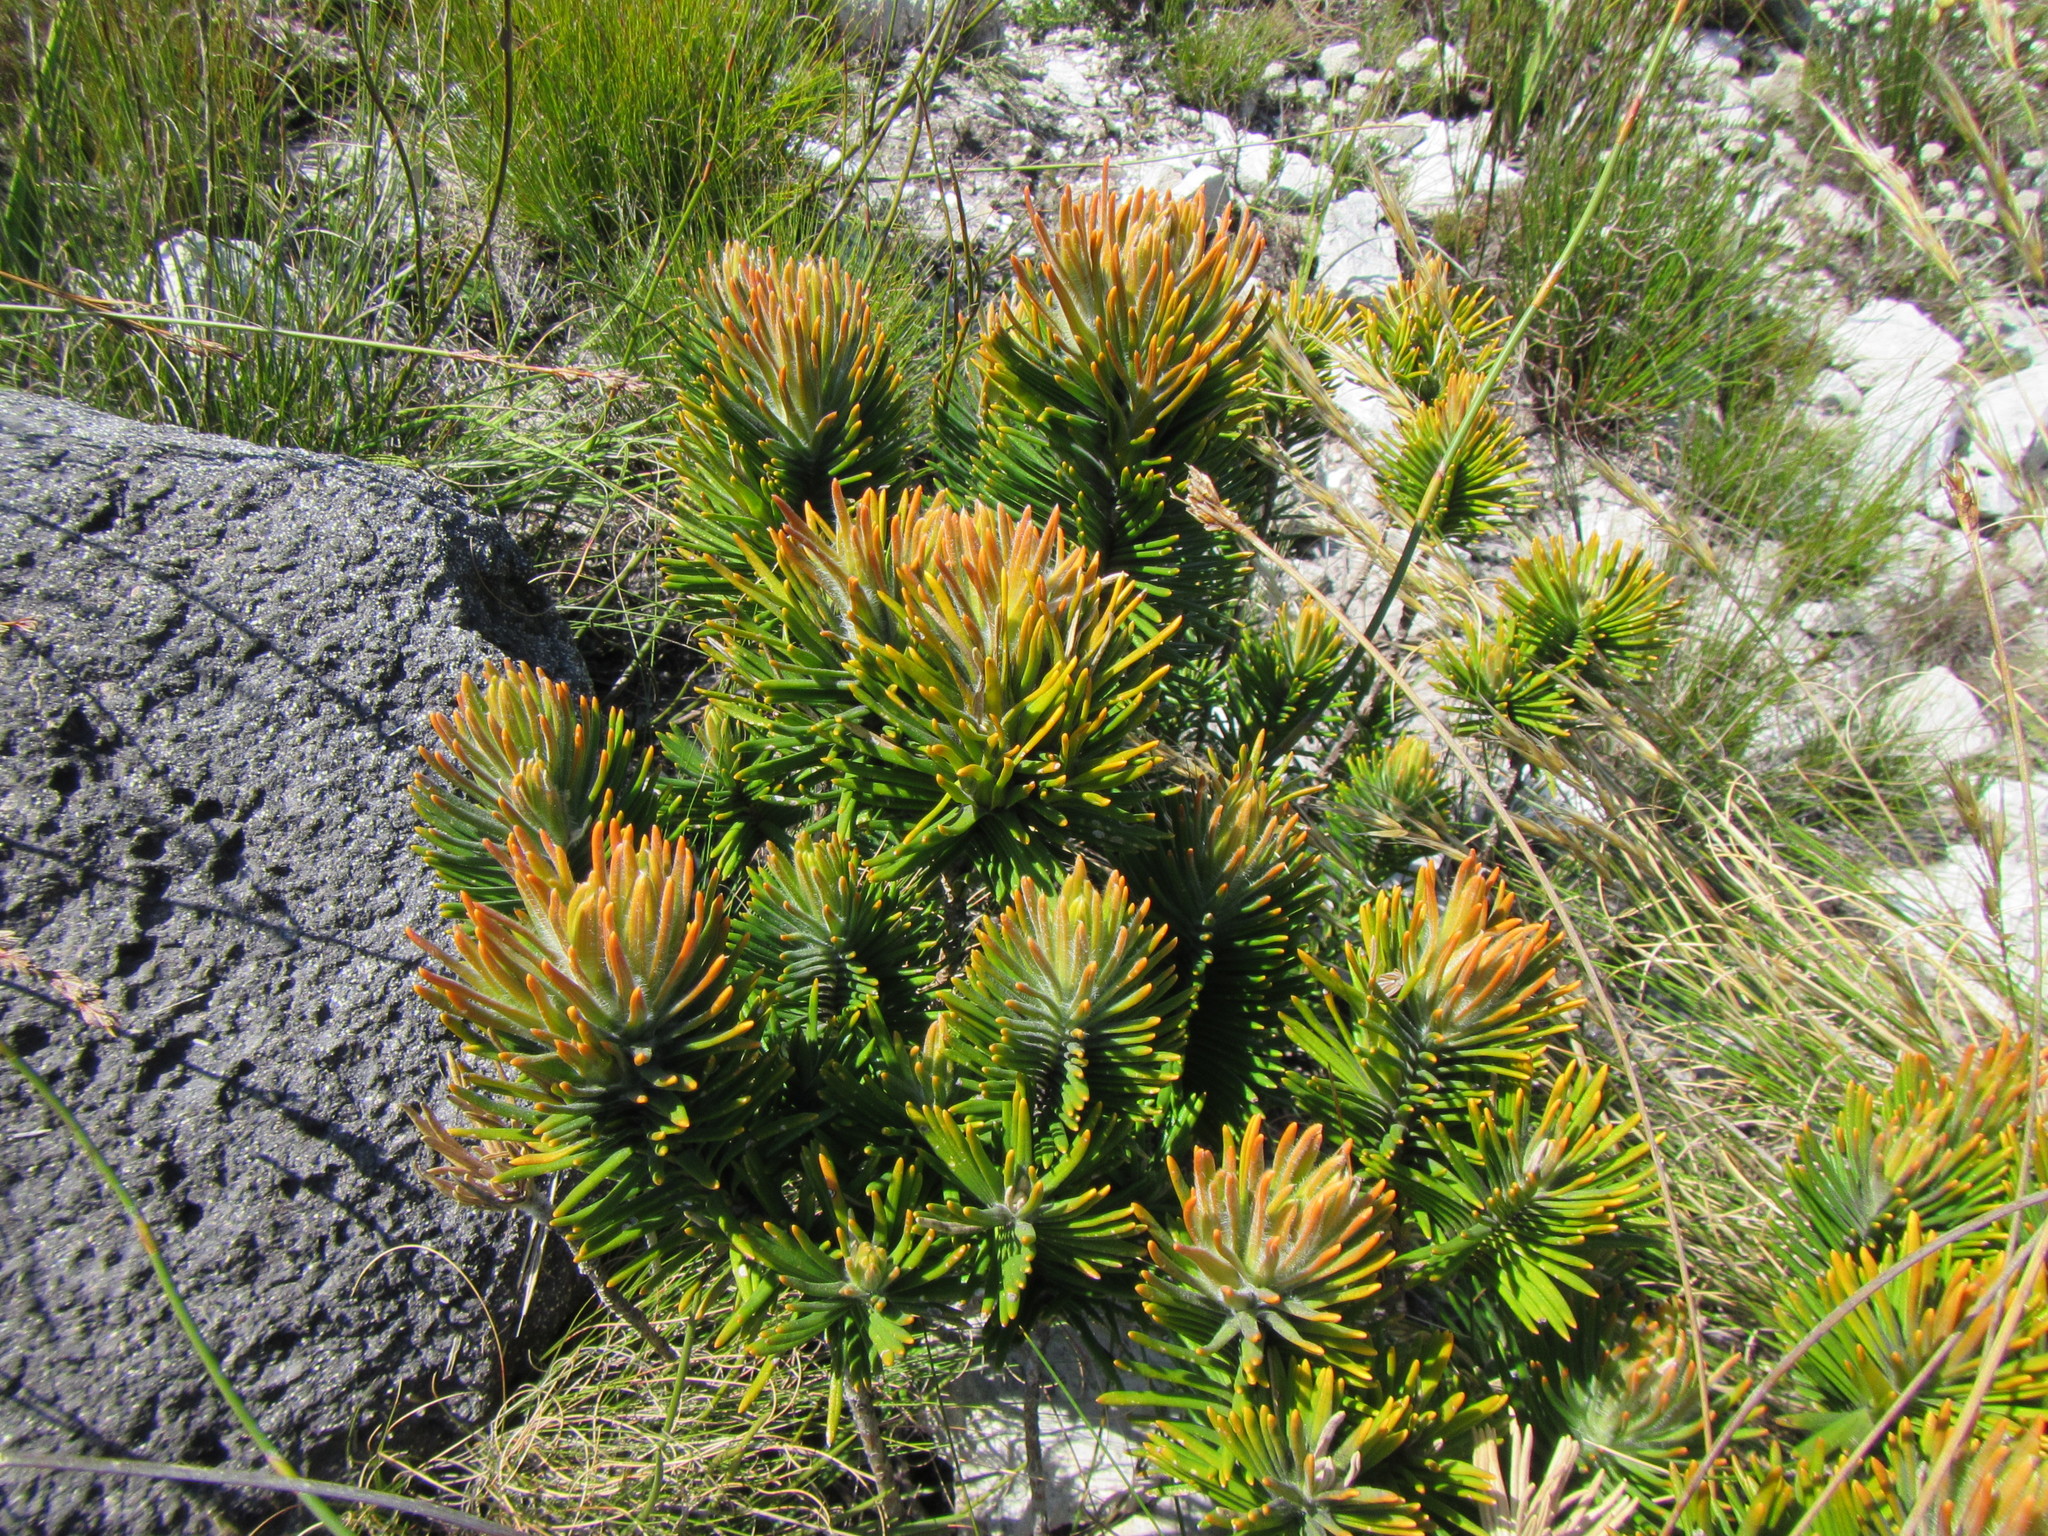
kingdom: Plantae
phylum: Tracheophyta
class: Magnoliopsida
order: Lamiales
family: Stilbaceae
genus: Retzia
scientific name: Retzia capensis
